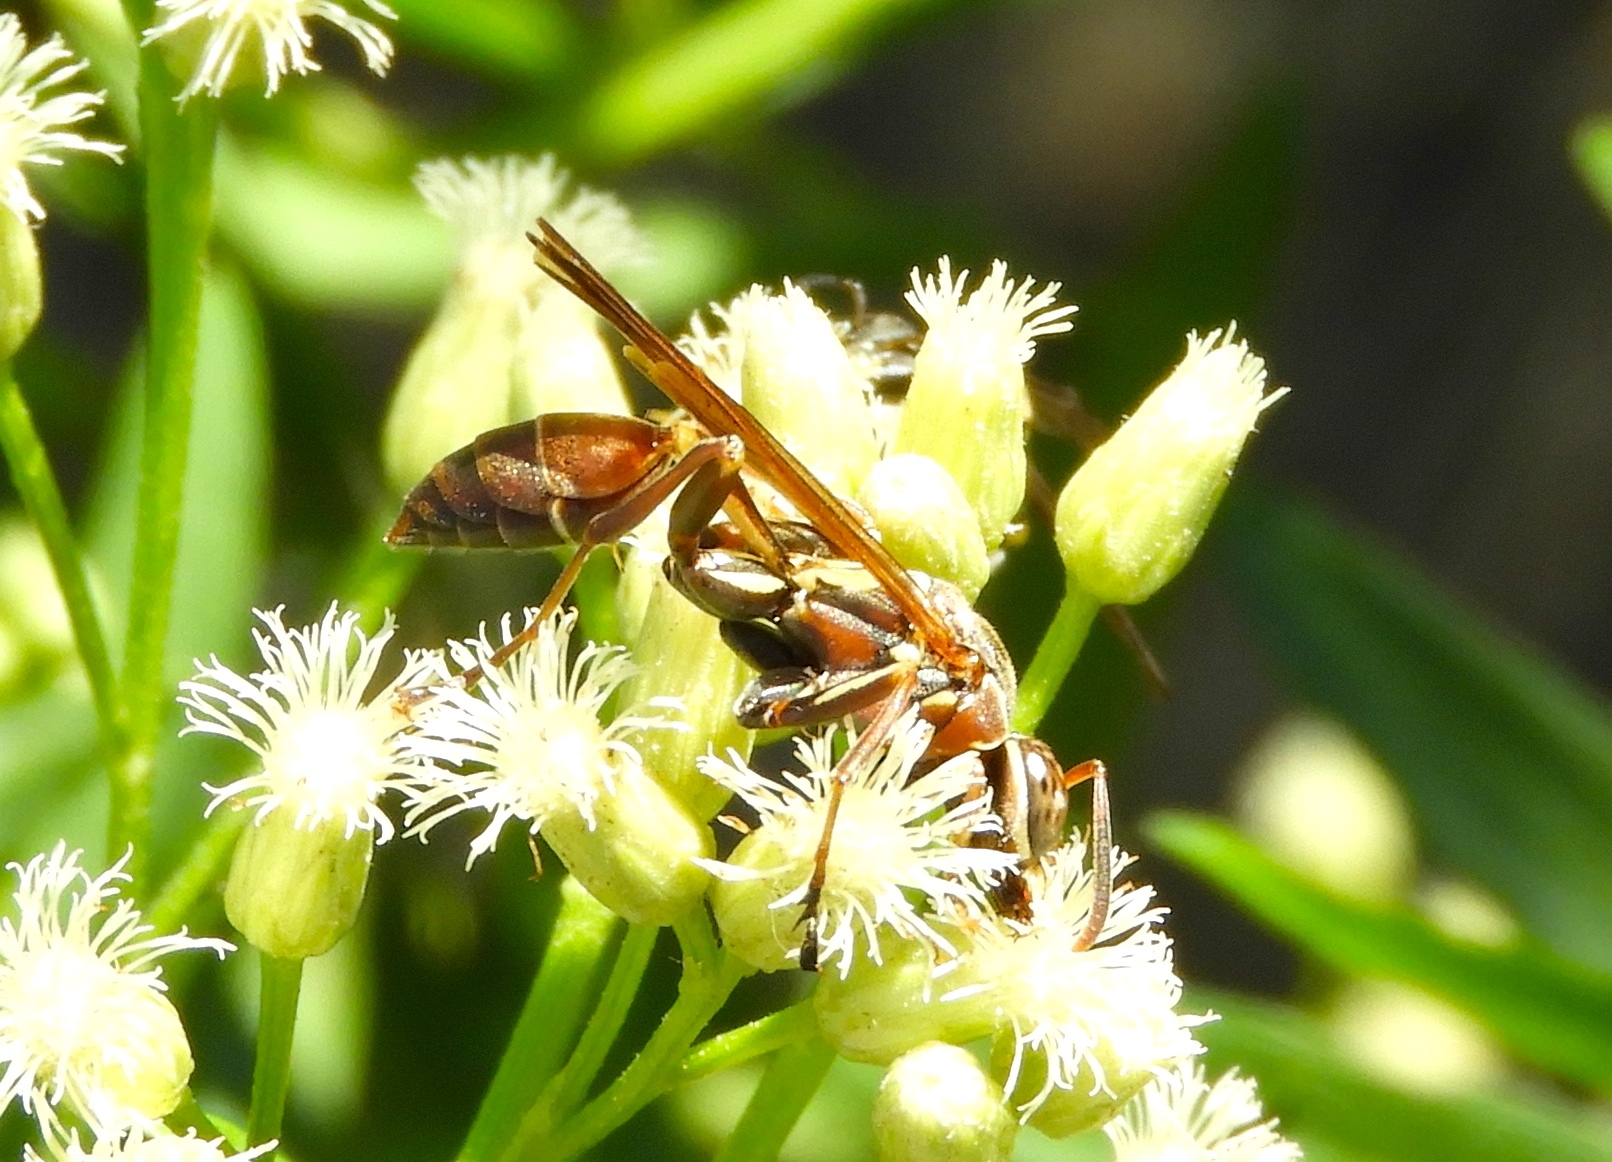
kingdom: Animalia
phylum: Arthropoda
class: Insecta
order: Hymenoptera
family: Vespidae
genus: Mischocyttarus
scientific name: Mischocyttarus
